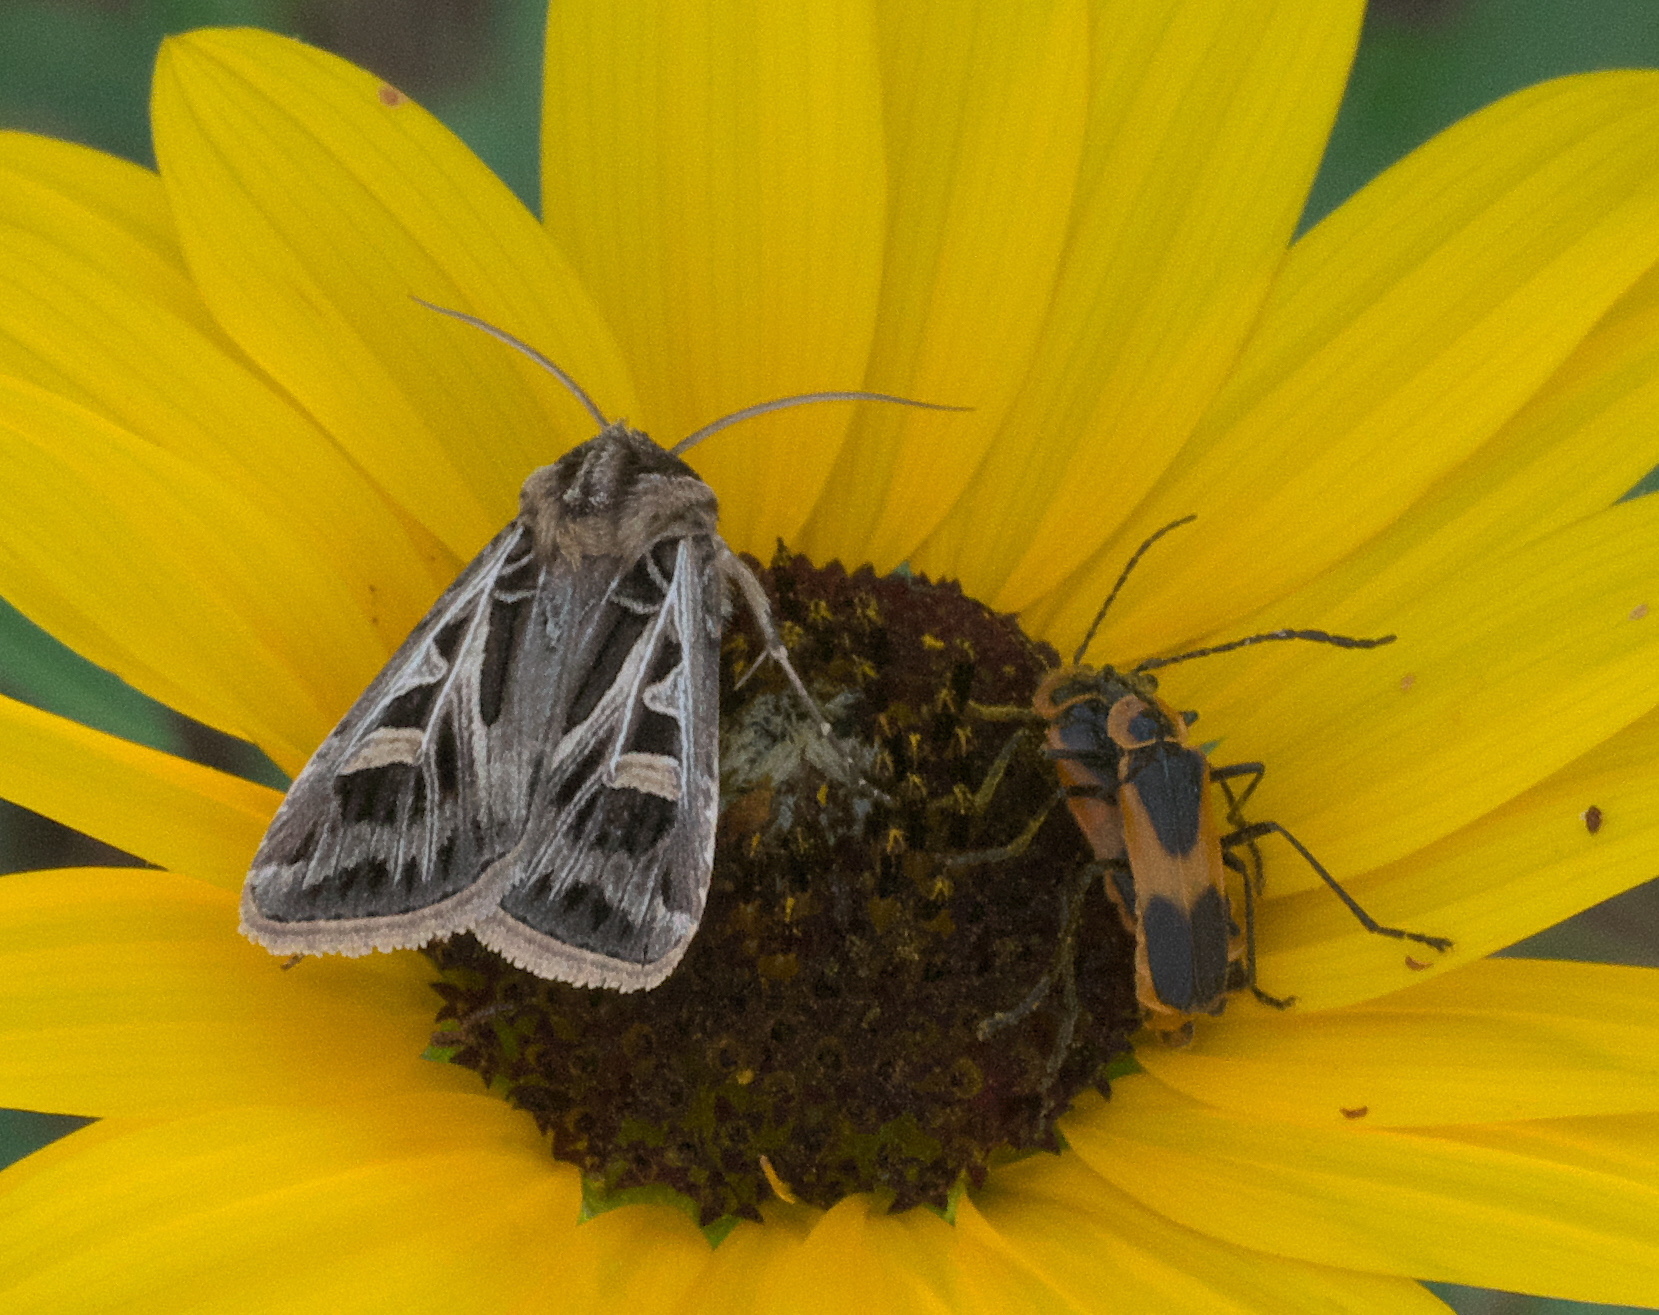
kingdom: Animalia
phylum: Arthropoda
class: Insecta
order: Lepidoptera
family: Noctuidae
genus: Feltia
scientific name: Feltia jaculifera
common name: Dingy cutworm moth
